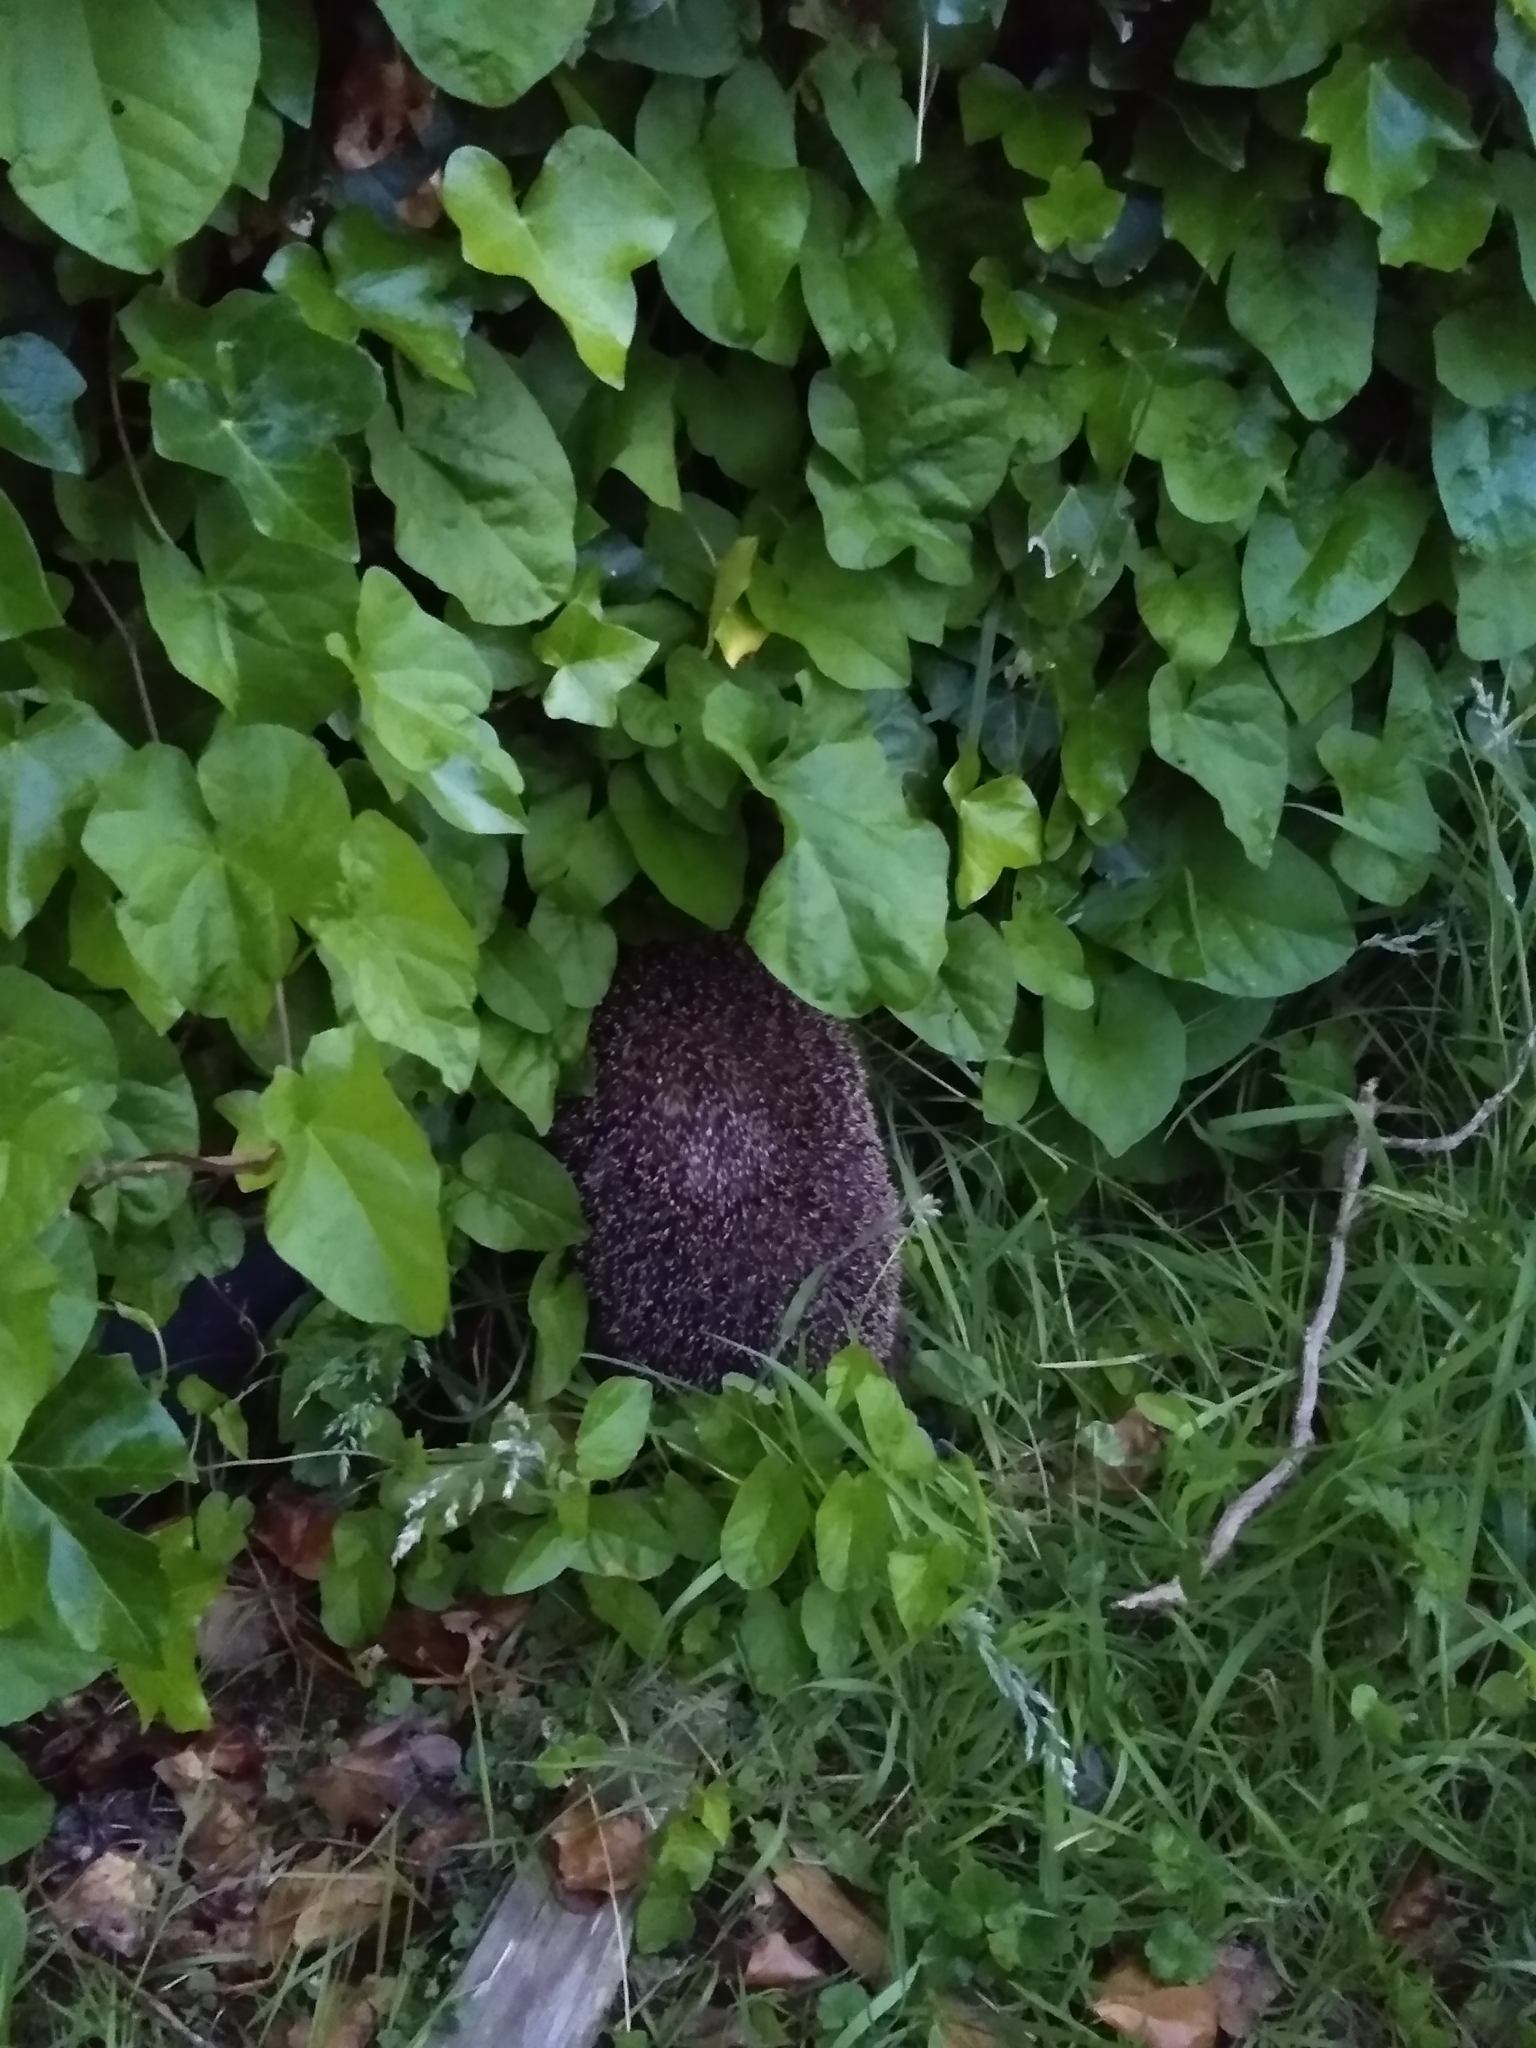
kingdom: Animalia
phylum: Chordata
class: Mammalia
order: Erinaceomorpha
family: Erinaceidae
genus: Erinaceus
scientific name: Erinaceus europaeus
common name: West european hedgehog
